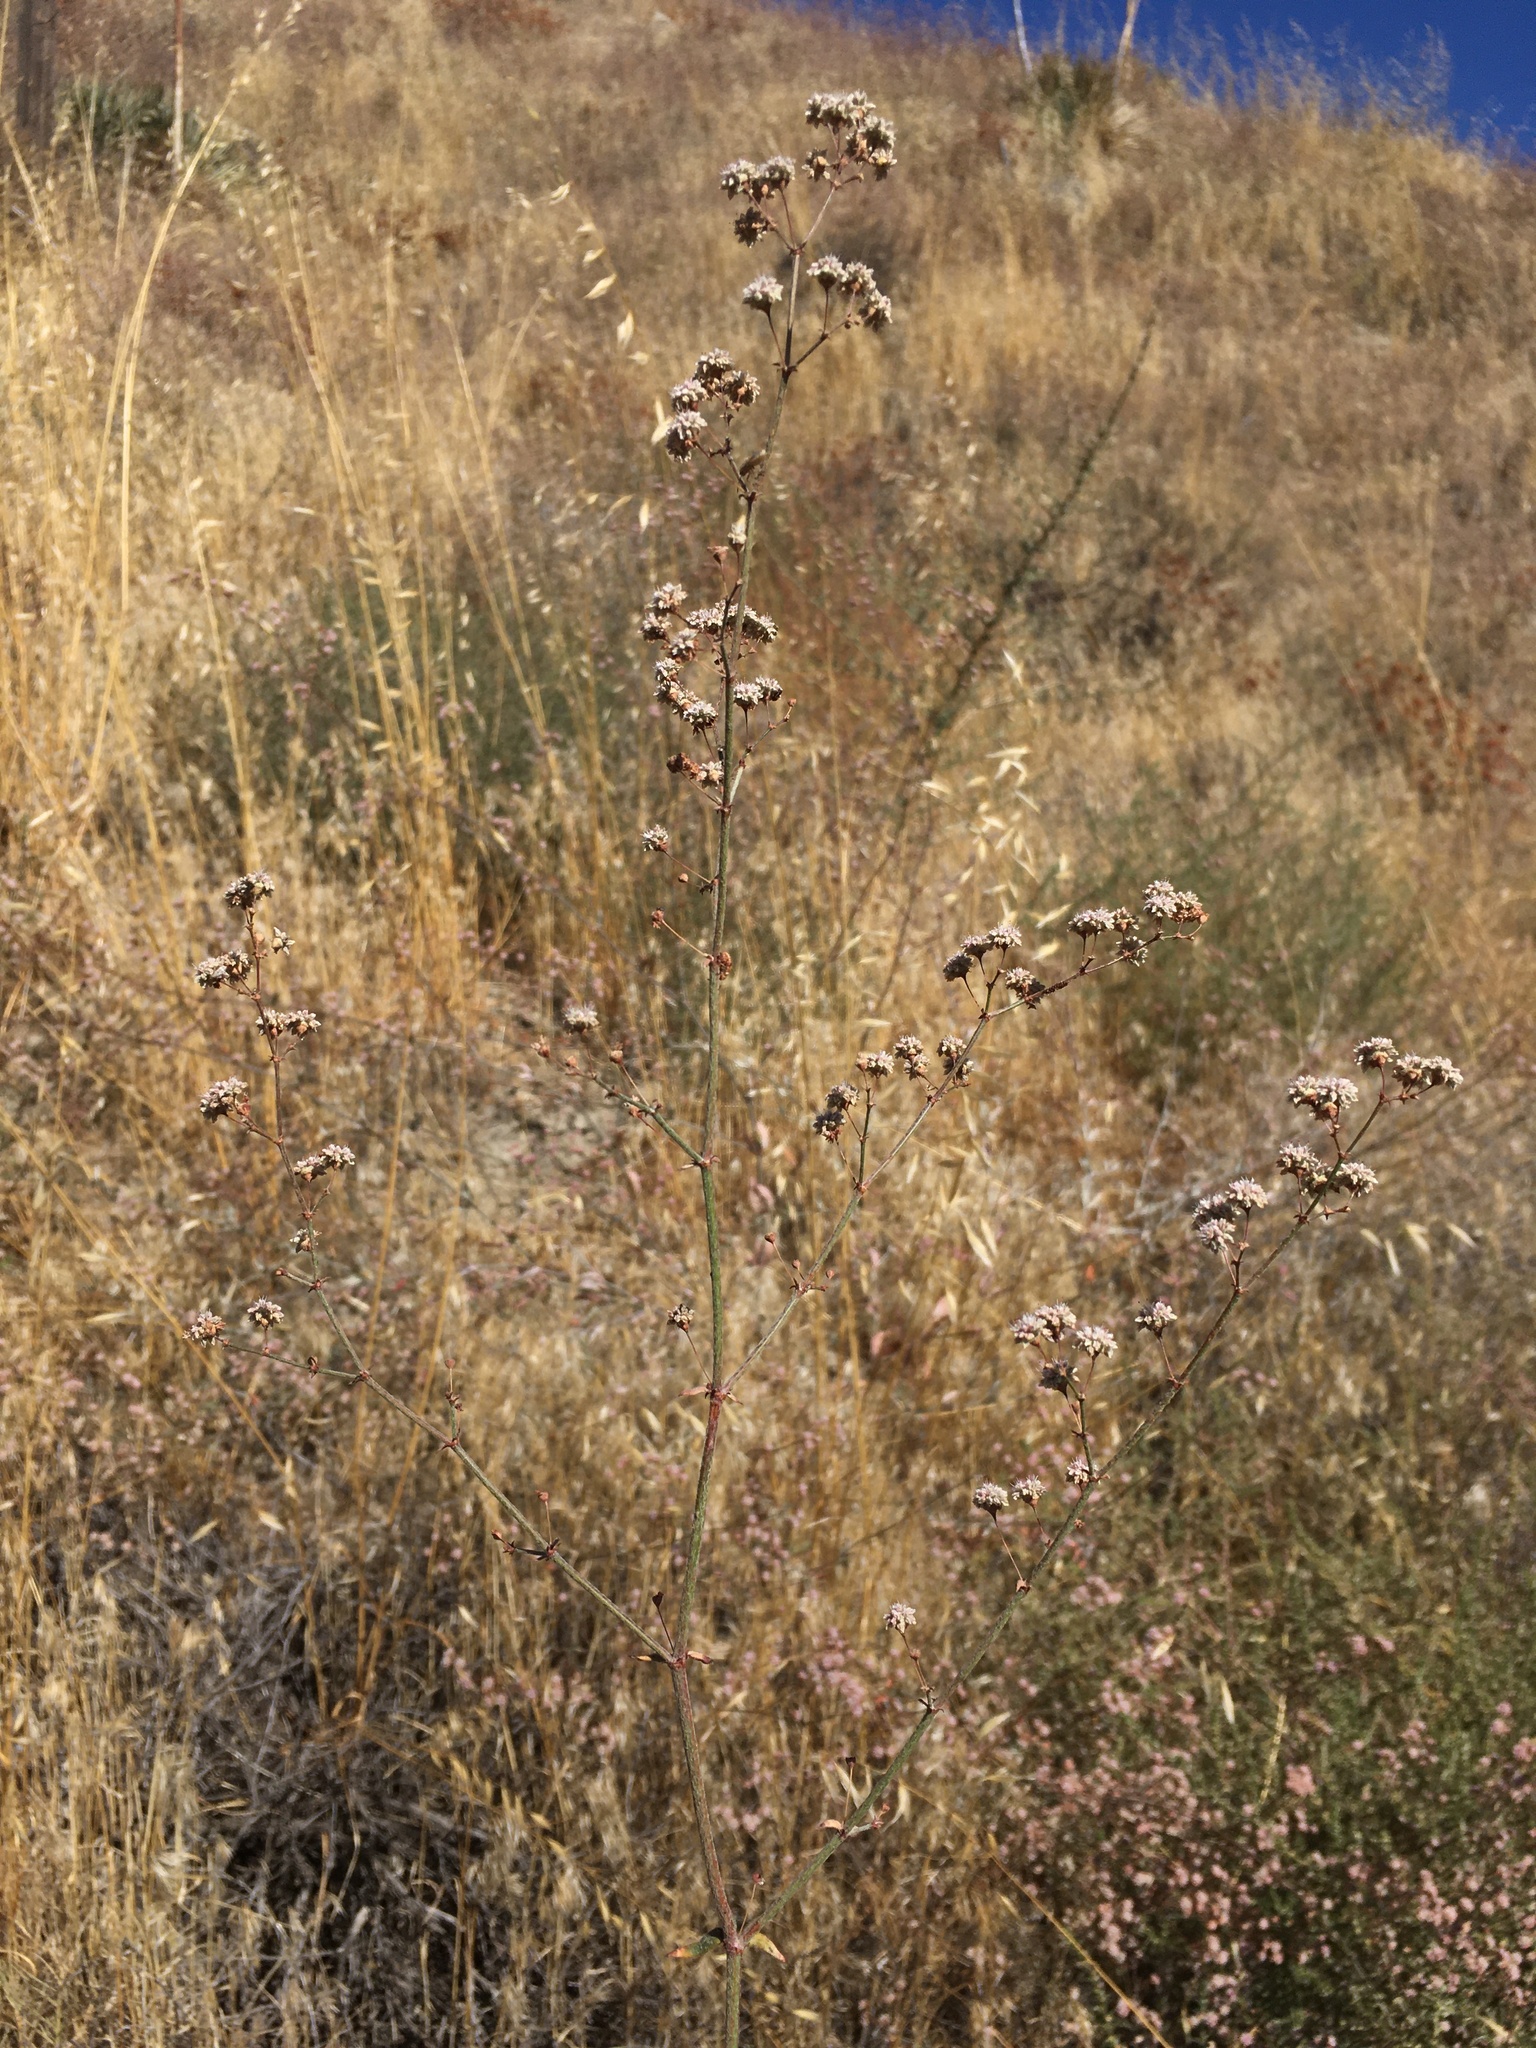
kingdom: Plantae
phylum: Tracheophyta
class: Magnoliopsida
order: Caryophyllales
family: Polygonaceae
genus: Eriogonum
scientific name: Eriogonum angulosum
